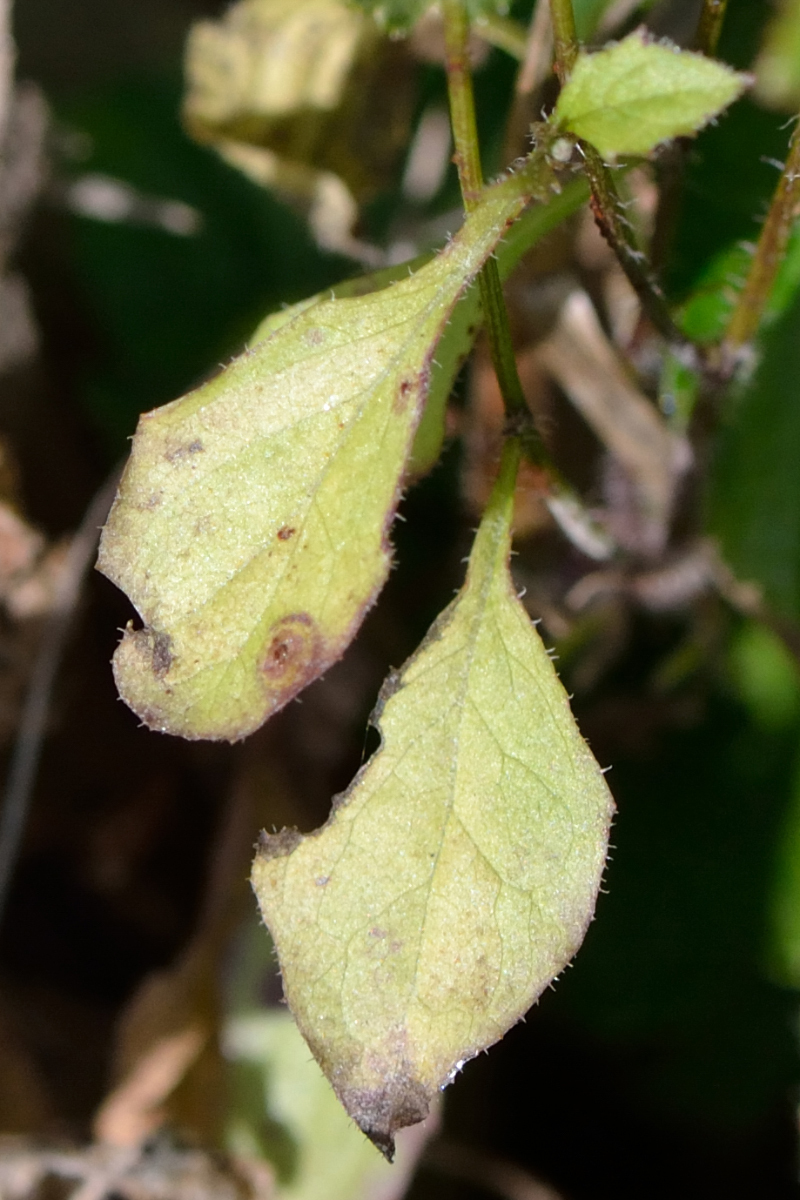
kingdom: Plantae
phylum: Tracheophyta
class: Magnoliopsida
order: Asterales
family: Asteraceae
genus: Lapsana
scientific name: Lapsana communis
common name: Nipplewort
